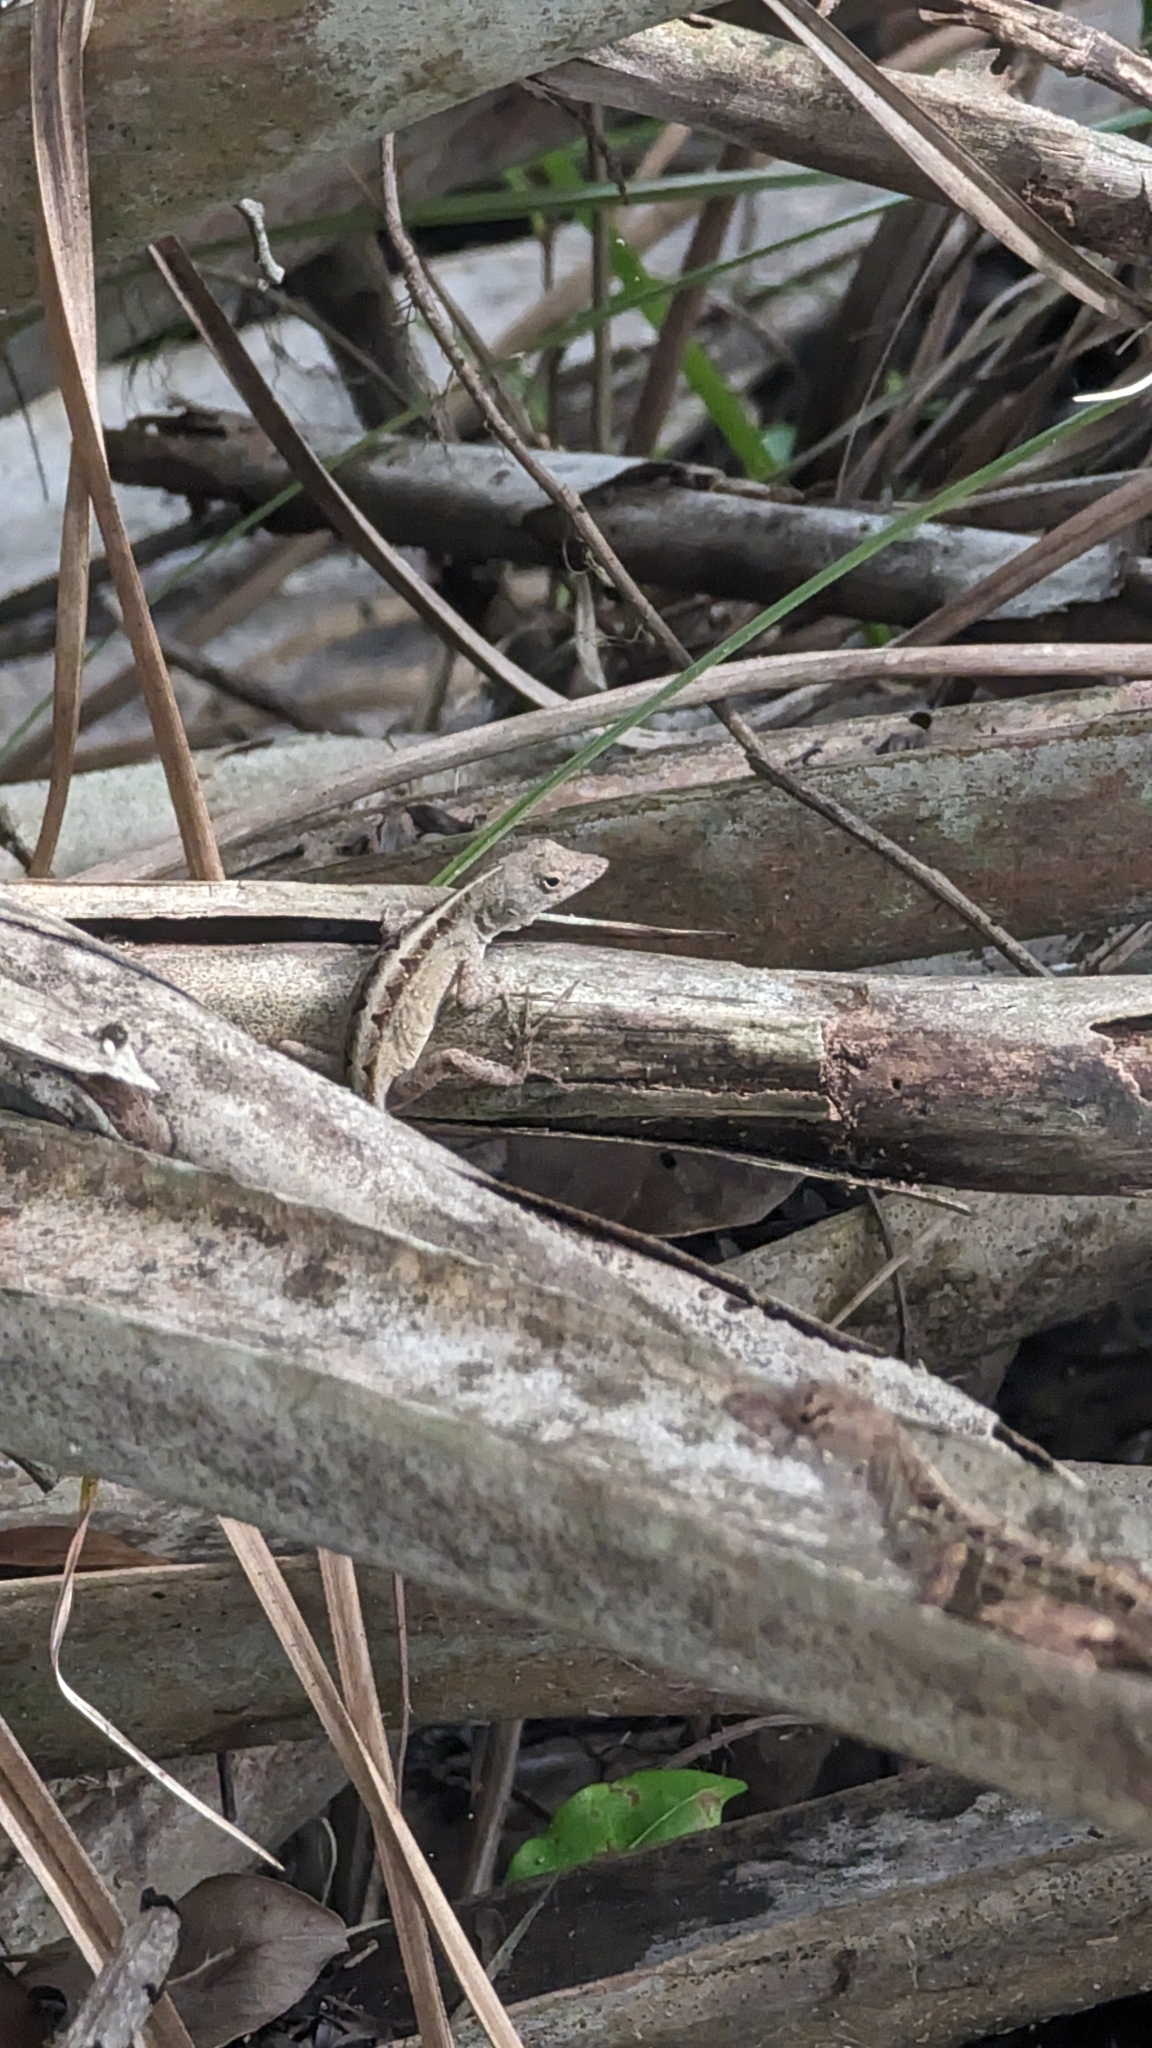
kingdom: Animalia
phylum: Chordata
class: Squamata
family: Dactyloidae
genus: Anolis
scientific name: Anolis sagrei
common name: Brown anole
